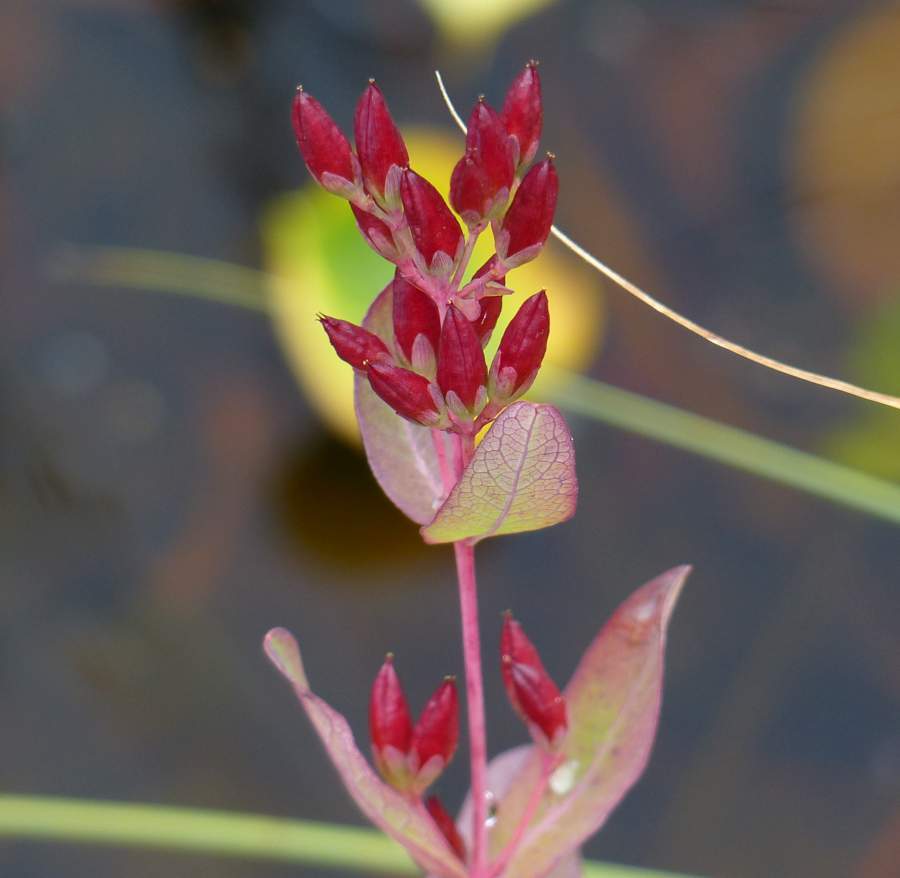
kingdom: Plantae
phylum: Tracheophyta
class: Magnoliopsida
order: Malpighiales
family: Hypericaceae
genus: Triadenum
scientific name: Triadenum fraseri
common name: Fraser's marsh st. johnswort
